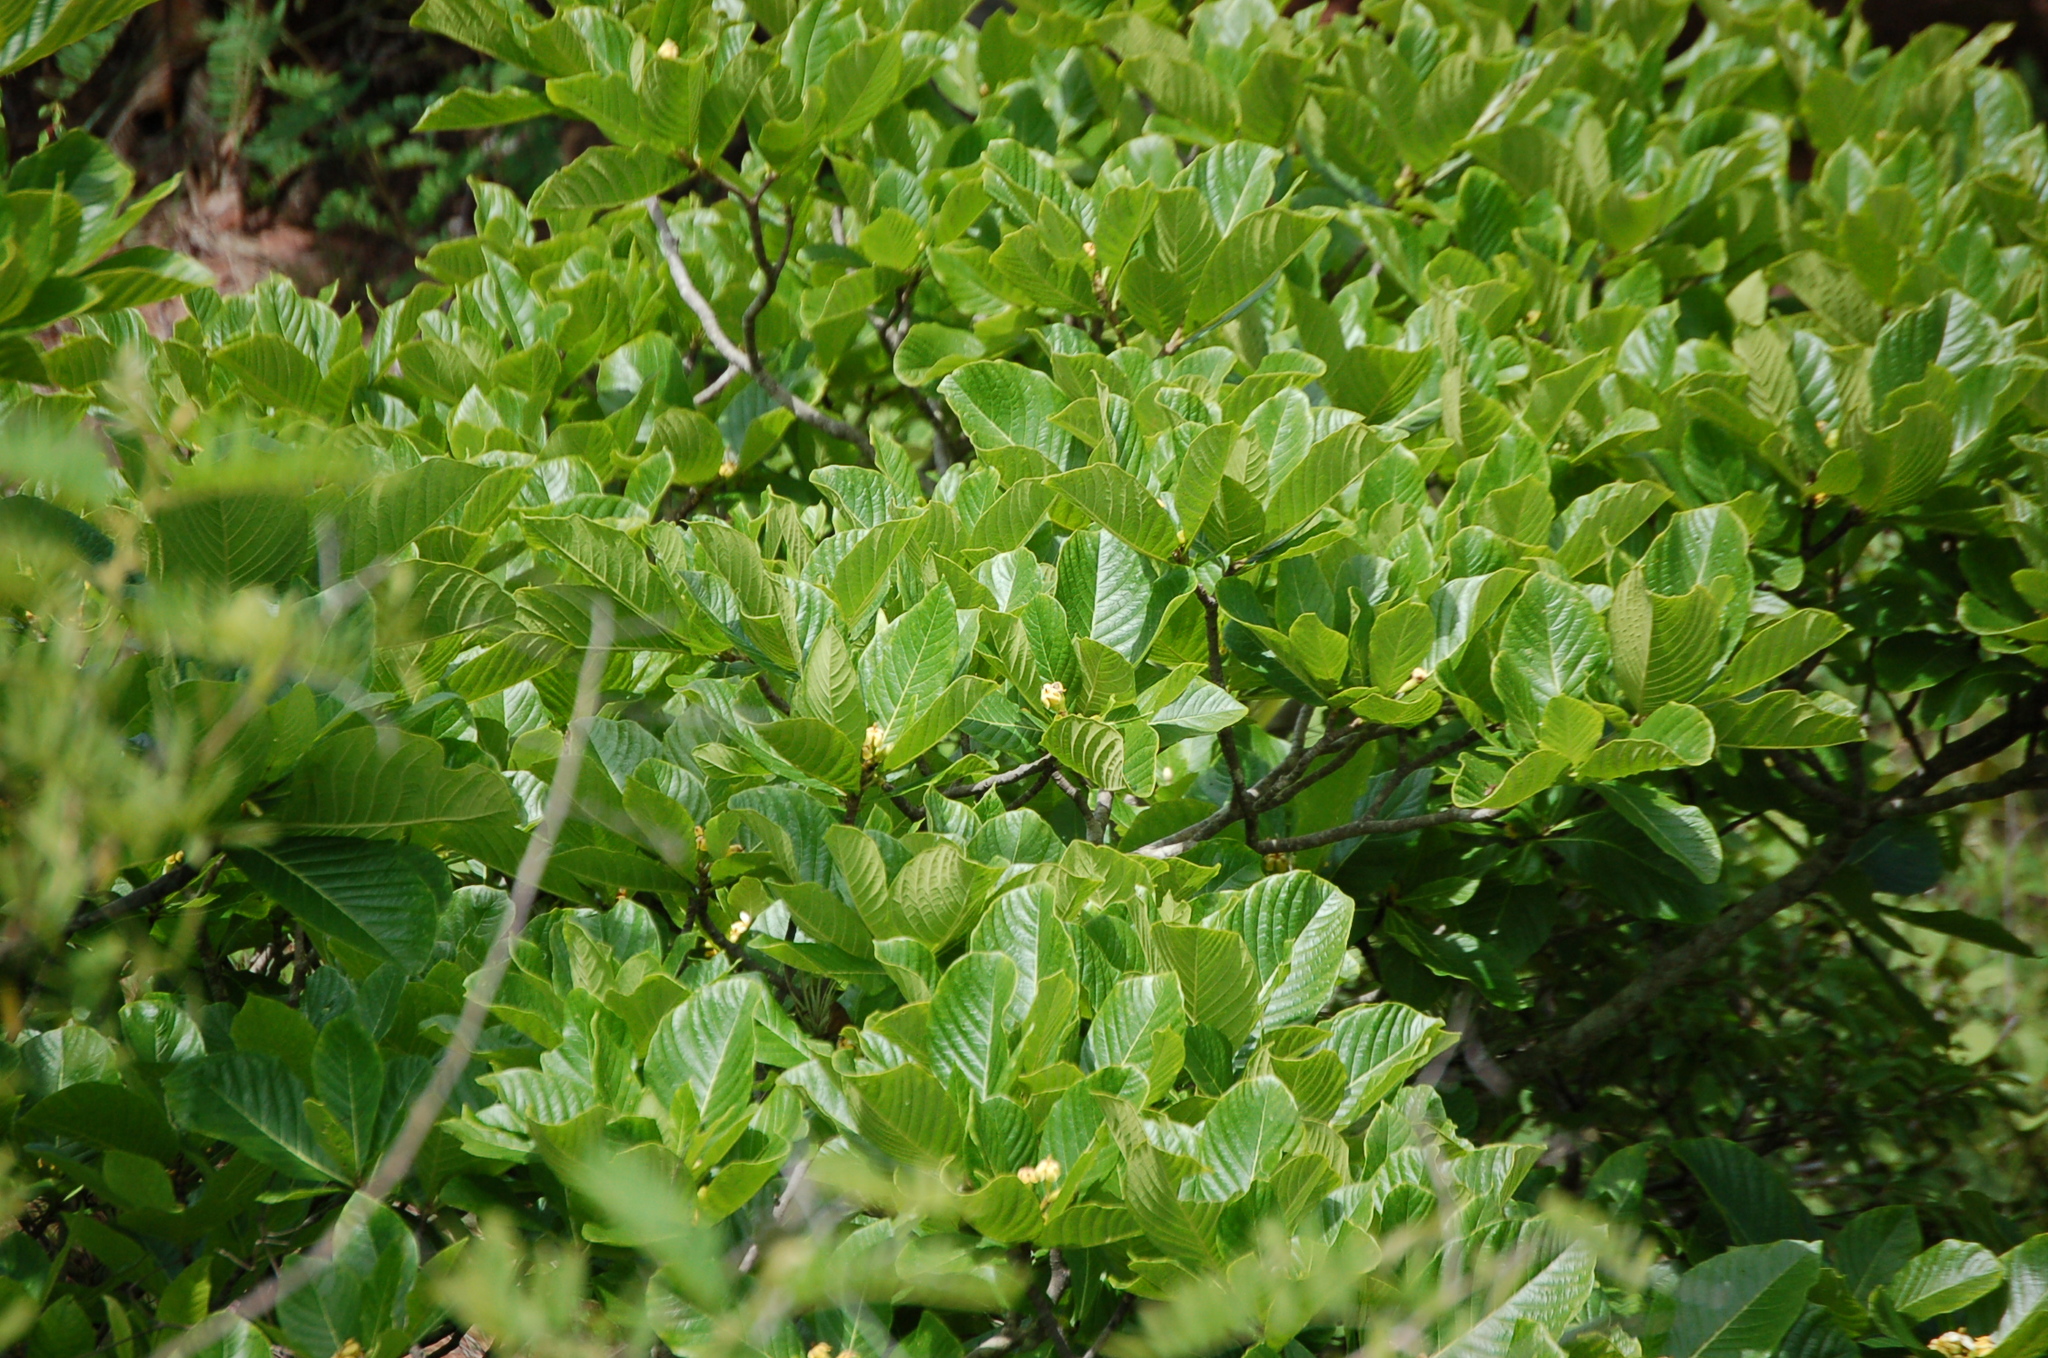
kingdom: Plantae
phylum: Tracheophyta
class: Magnoliopsida
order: Gentianales
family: Rubiaceae
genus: Genipa
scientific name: Genipa americana
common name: Genipap
